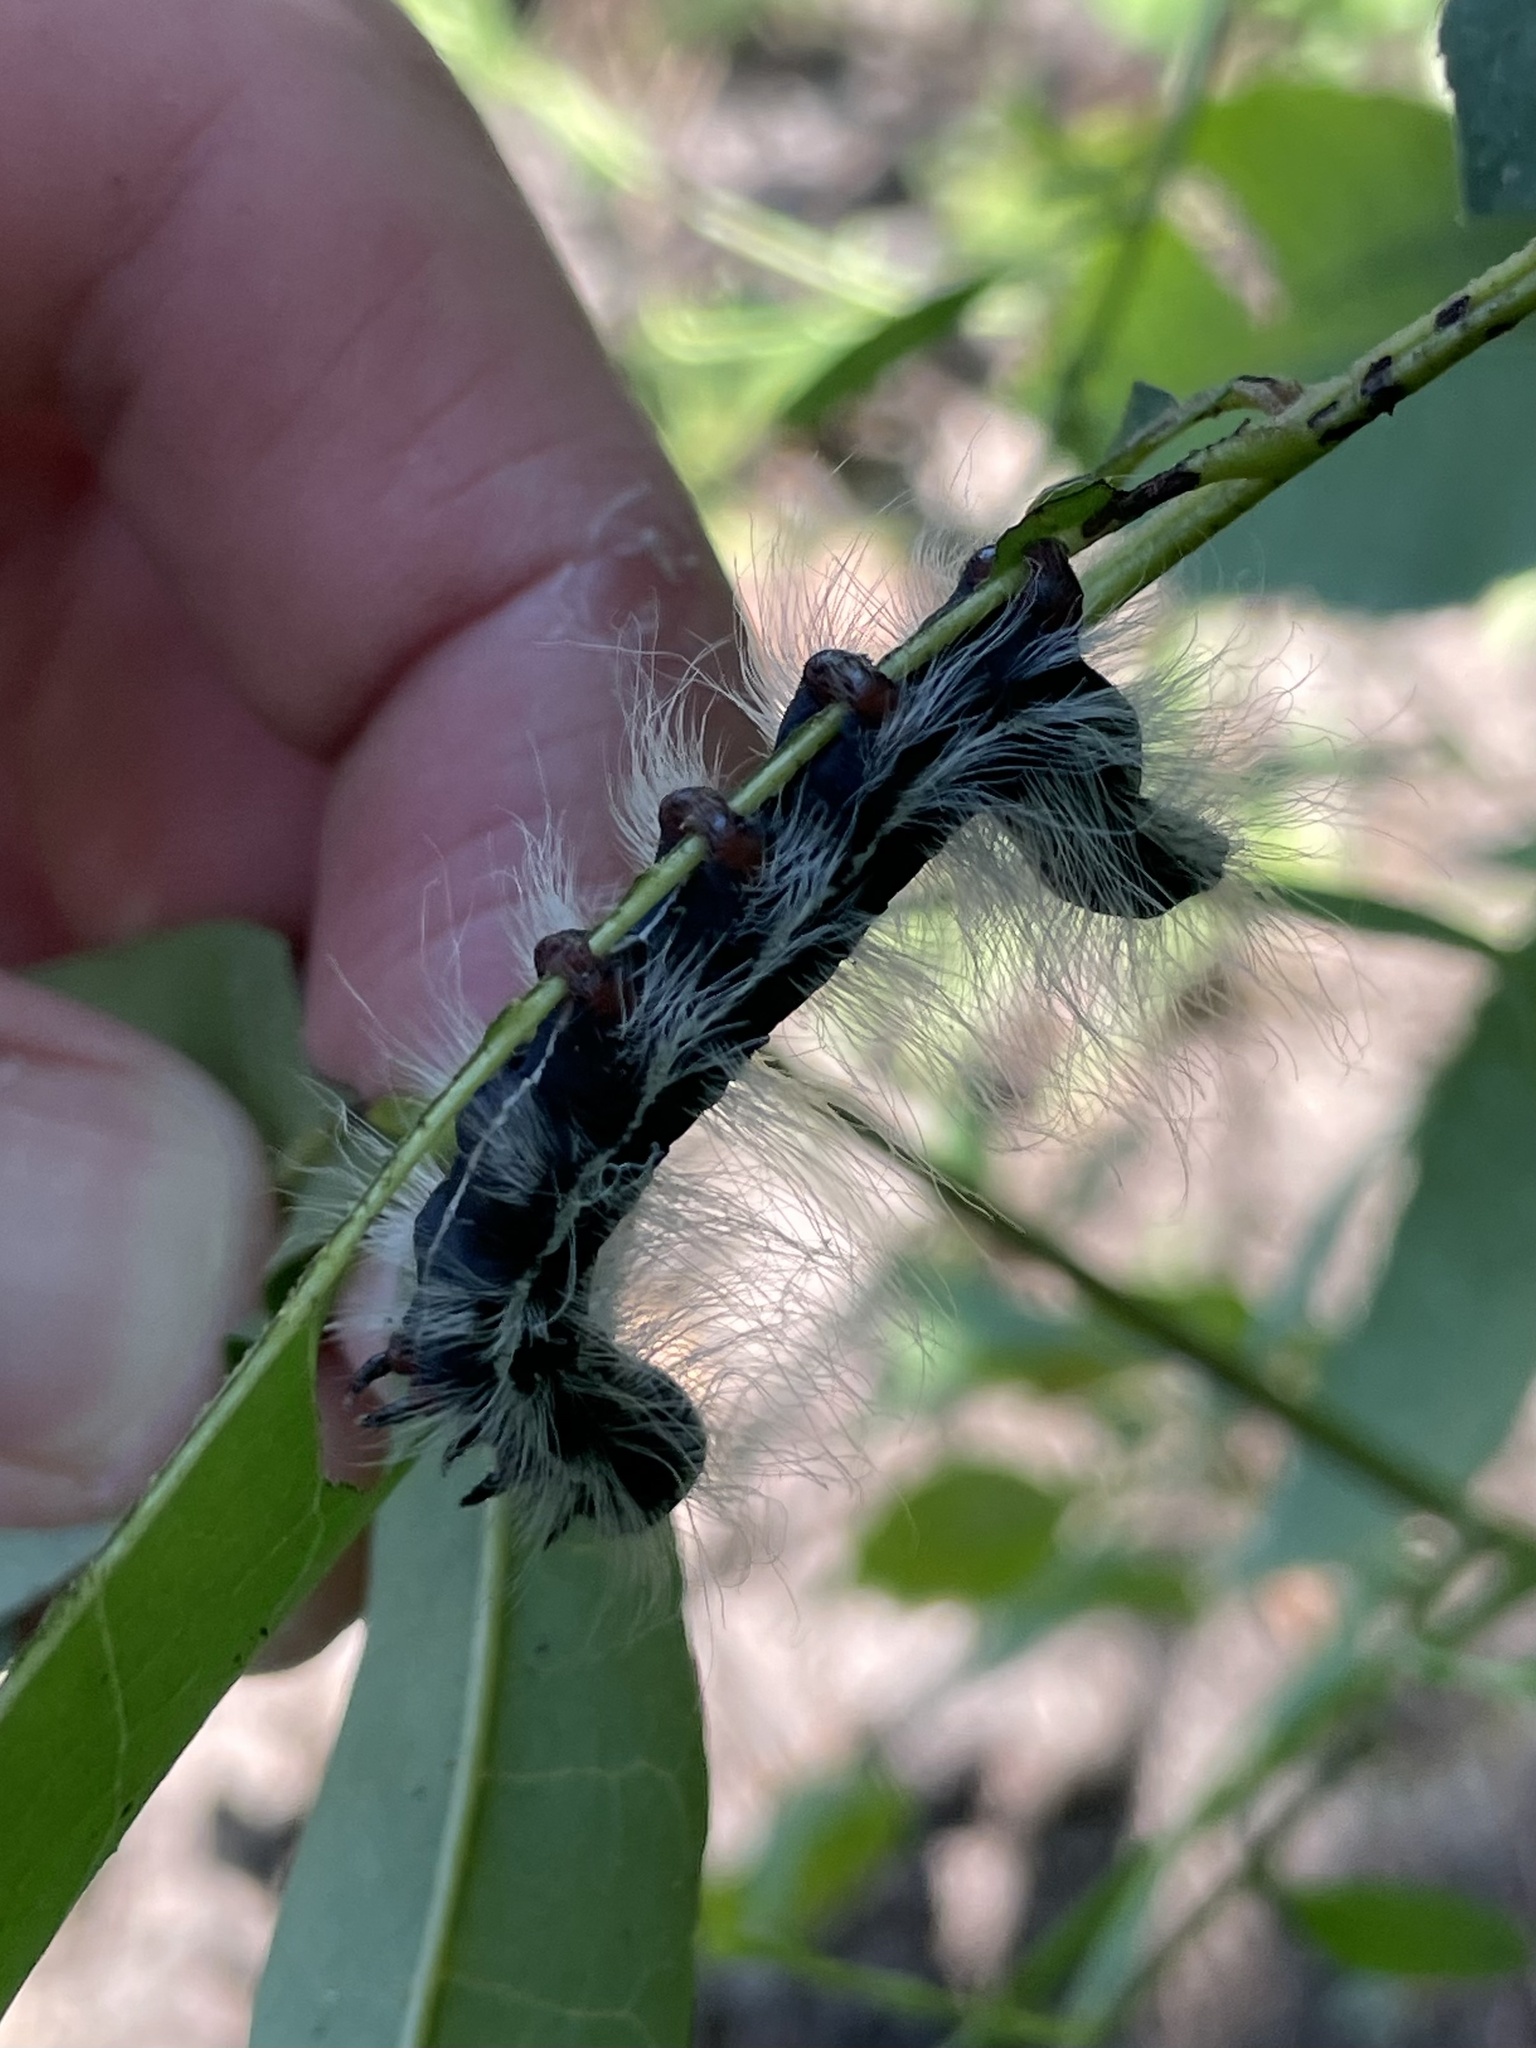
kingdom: Animalia
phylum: Arthropoda
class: Insecta
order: Lepidoptera
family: Notodontidae
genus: Datana
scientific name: Datana integerrima
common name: Walnut caterpillar
